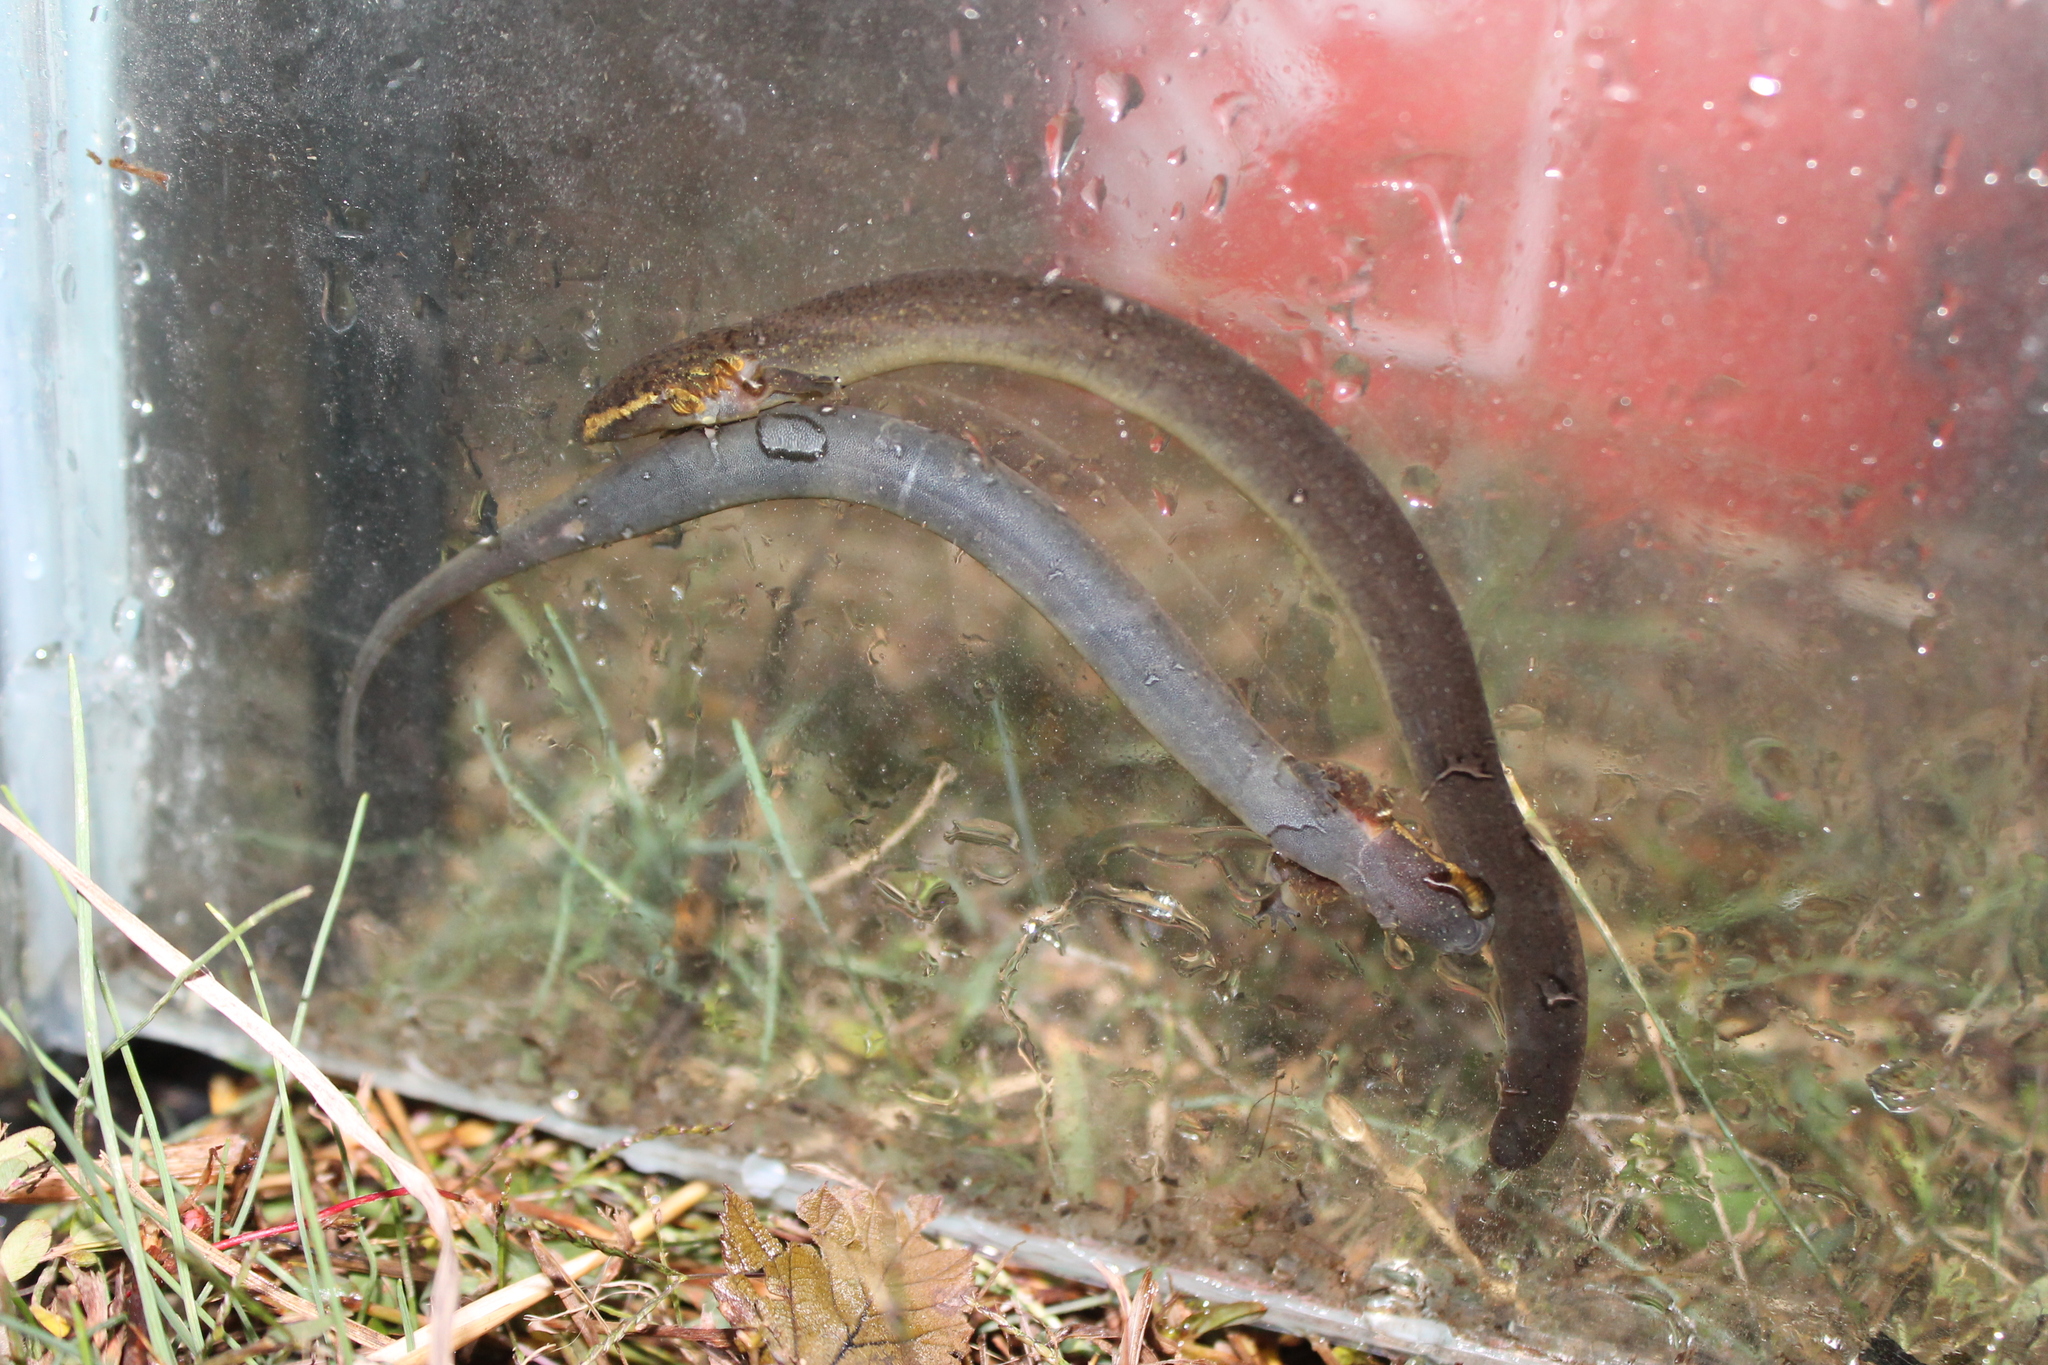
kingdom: Animalia
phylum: Chordata
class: Amphibia
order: Caudata
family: Sirenidae
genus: Siren
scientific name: Siren intermedia
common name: Lesser siren
